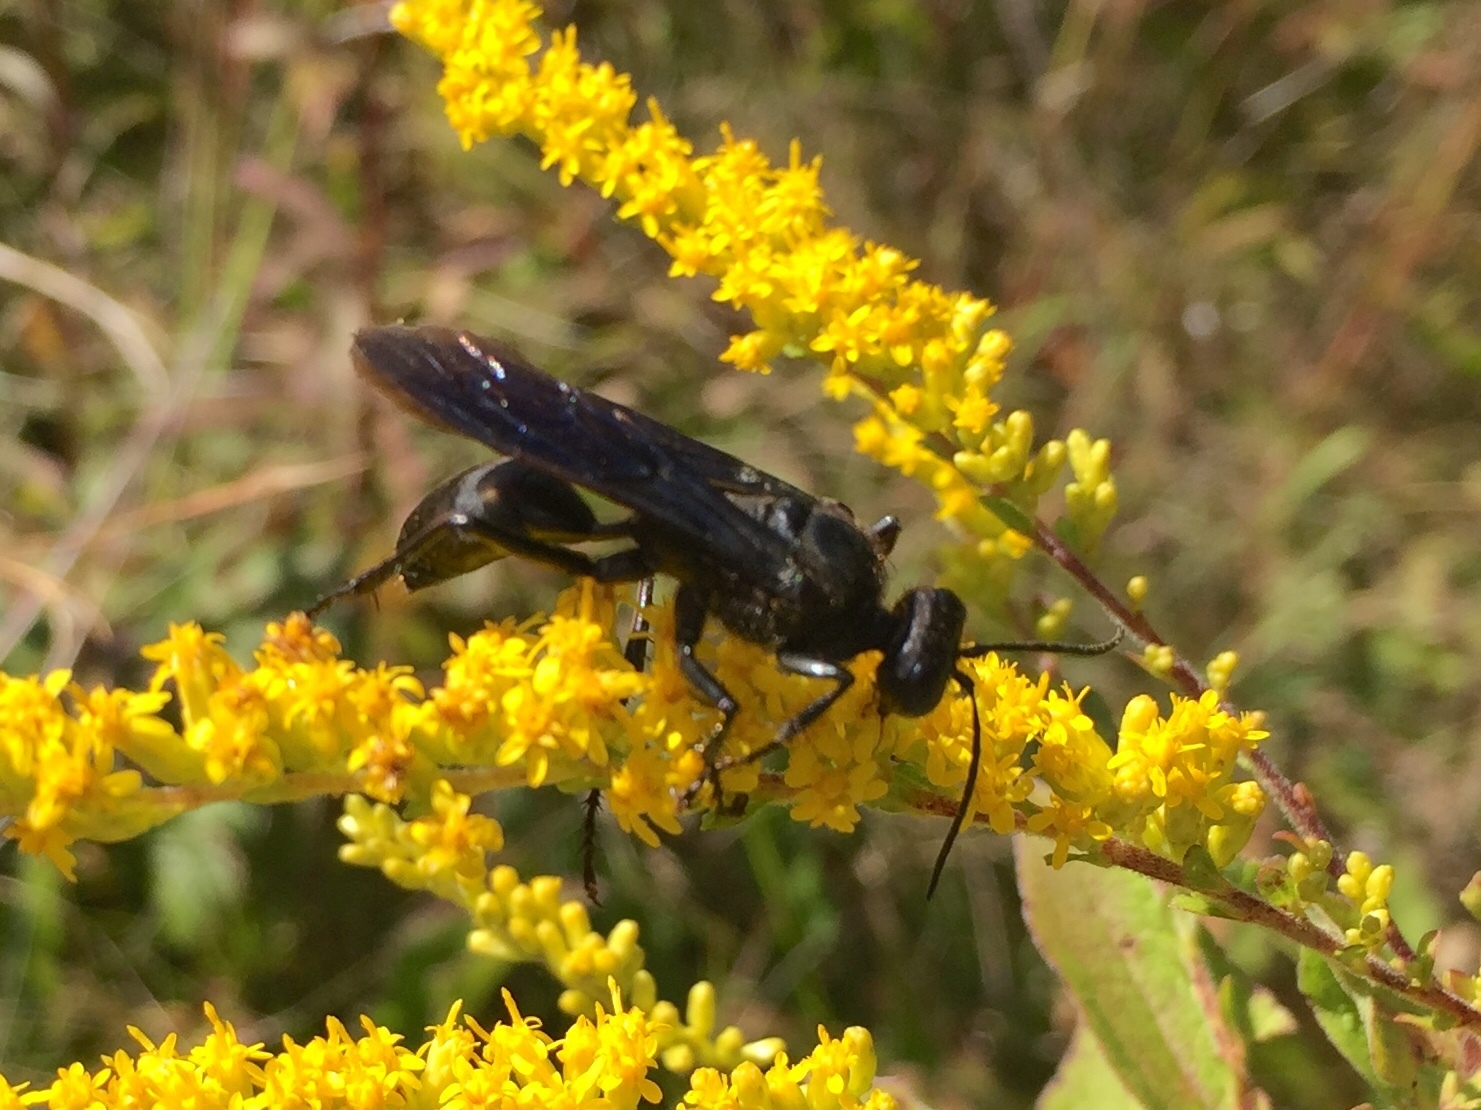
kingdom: Animalia
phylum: Arthropoda
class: Insecta
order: Hymenoptera
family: Sphecidae
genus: Sphex
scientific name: Sphex pensylvanicus
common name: Great black digger wasp
